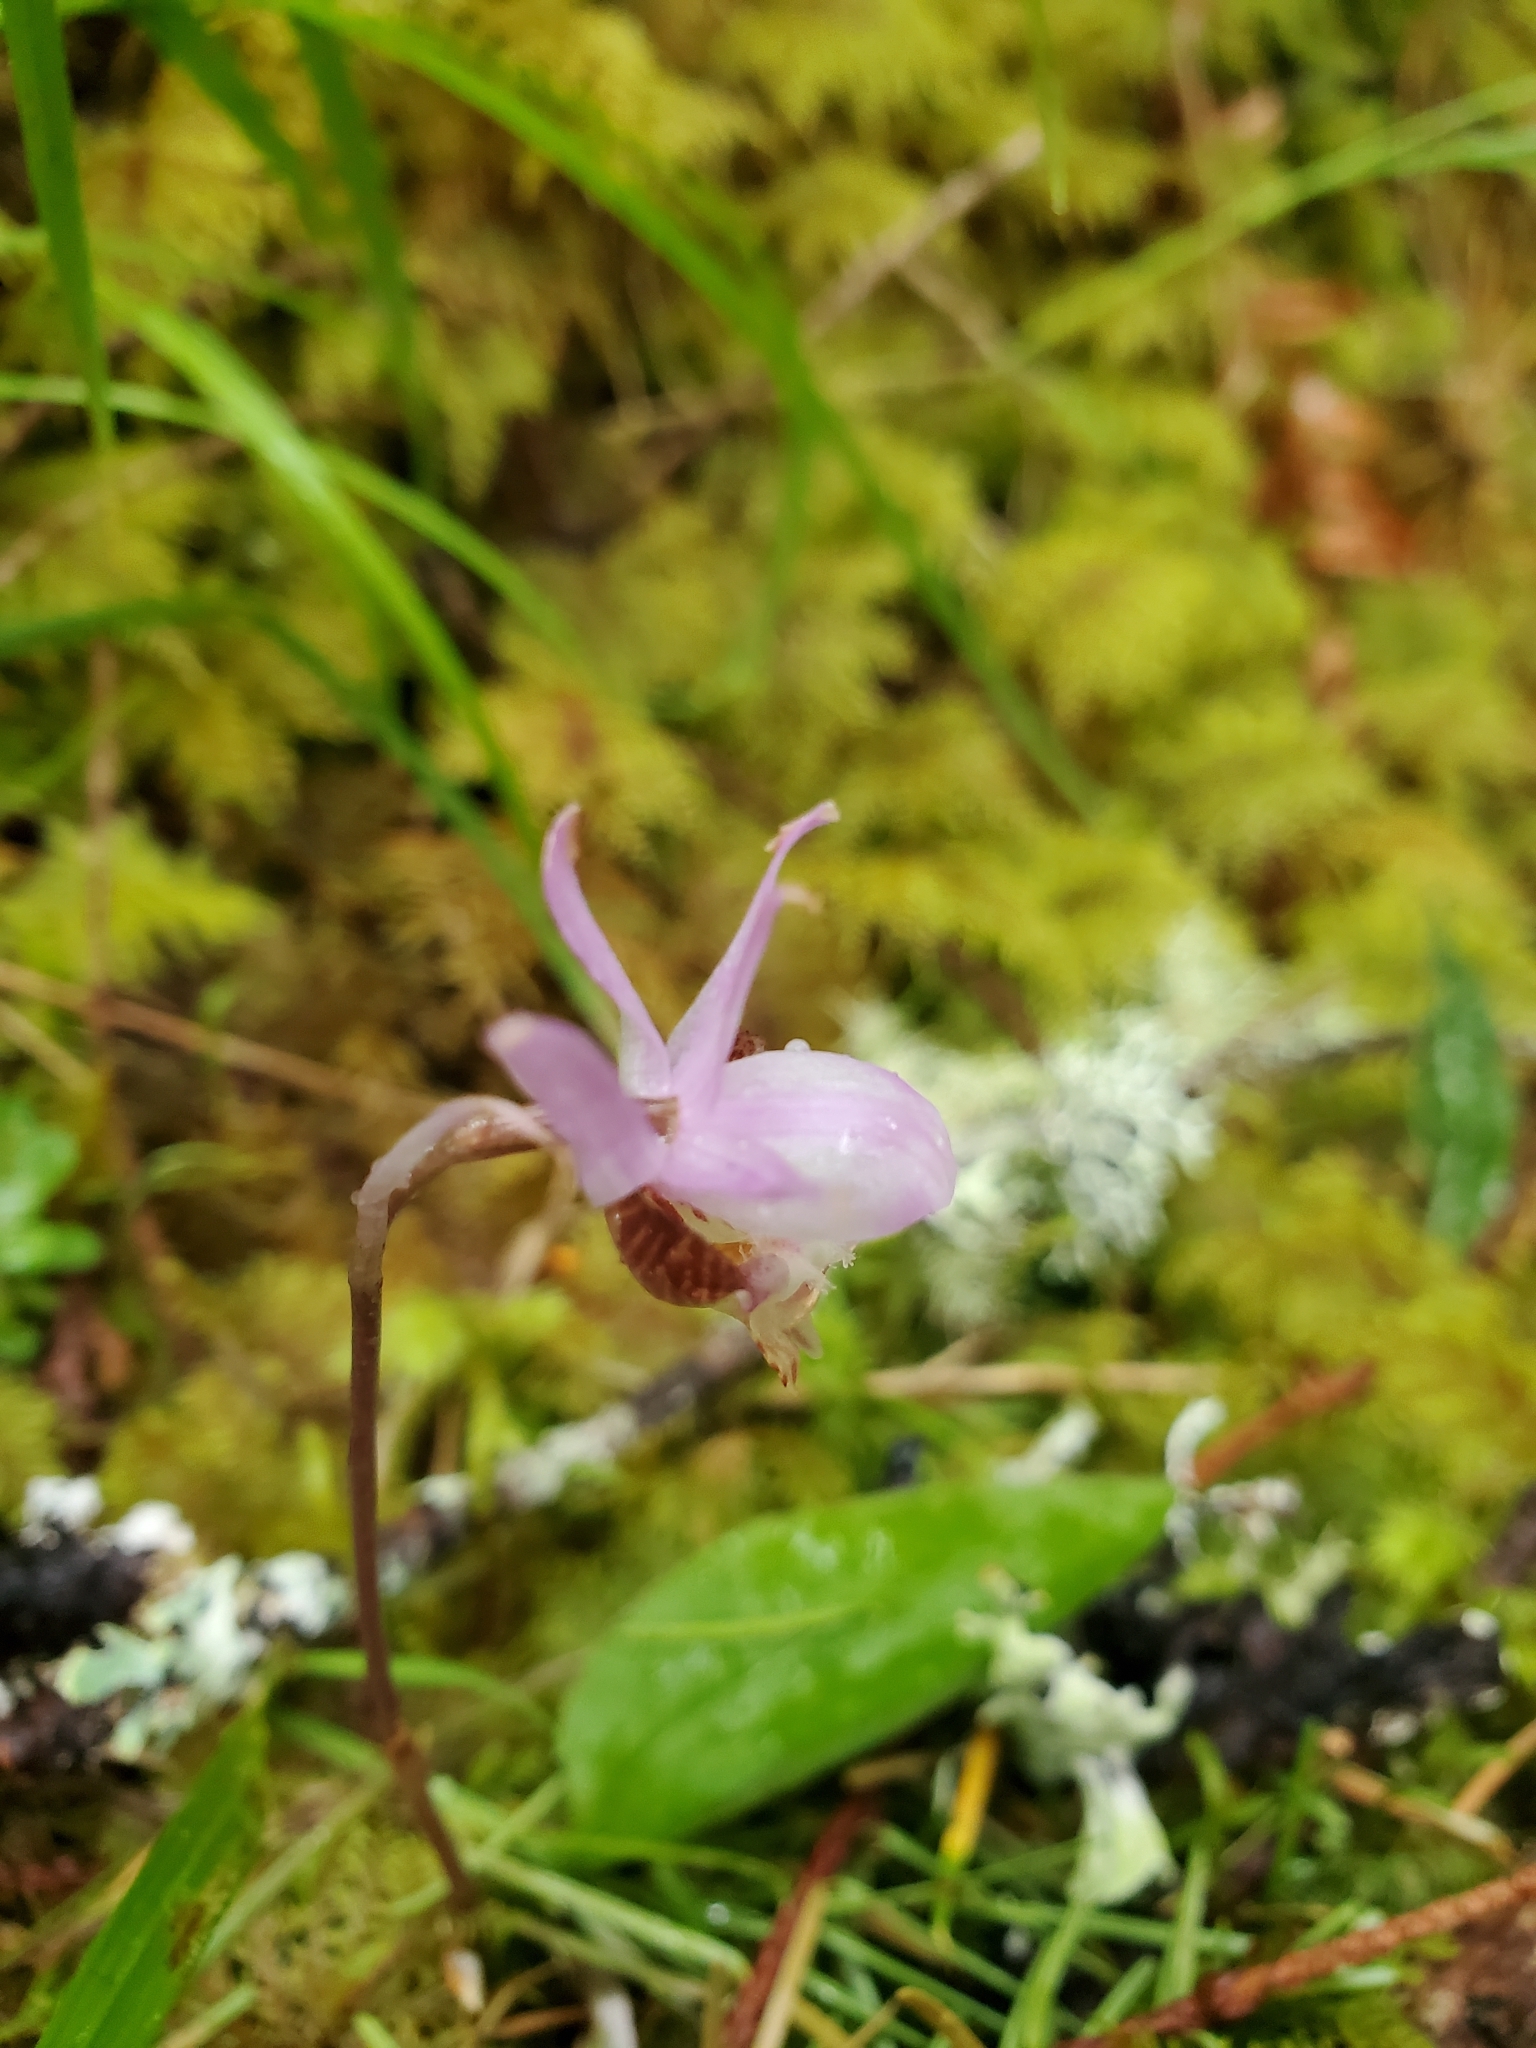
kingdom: Plantae
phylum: Tracheophyta
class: Liliopsida
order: Asparagales
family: Orchidaceae
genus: Calypso
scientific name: Calypso bulbosa
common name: Calypso
